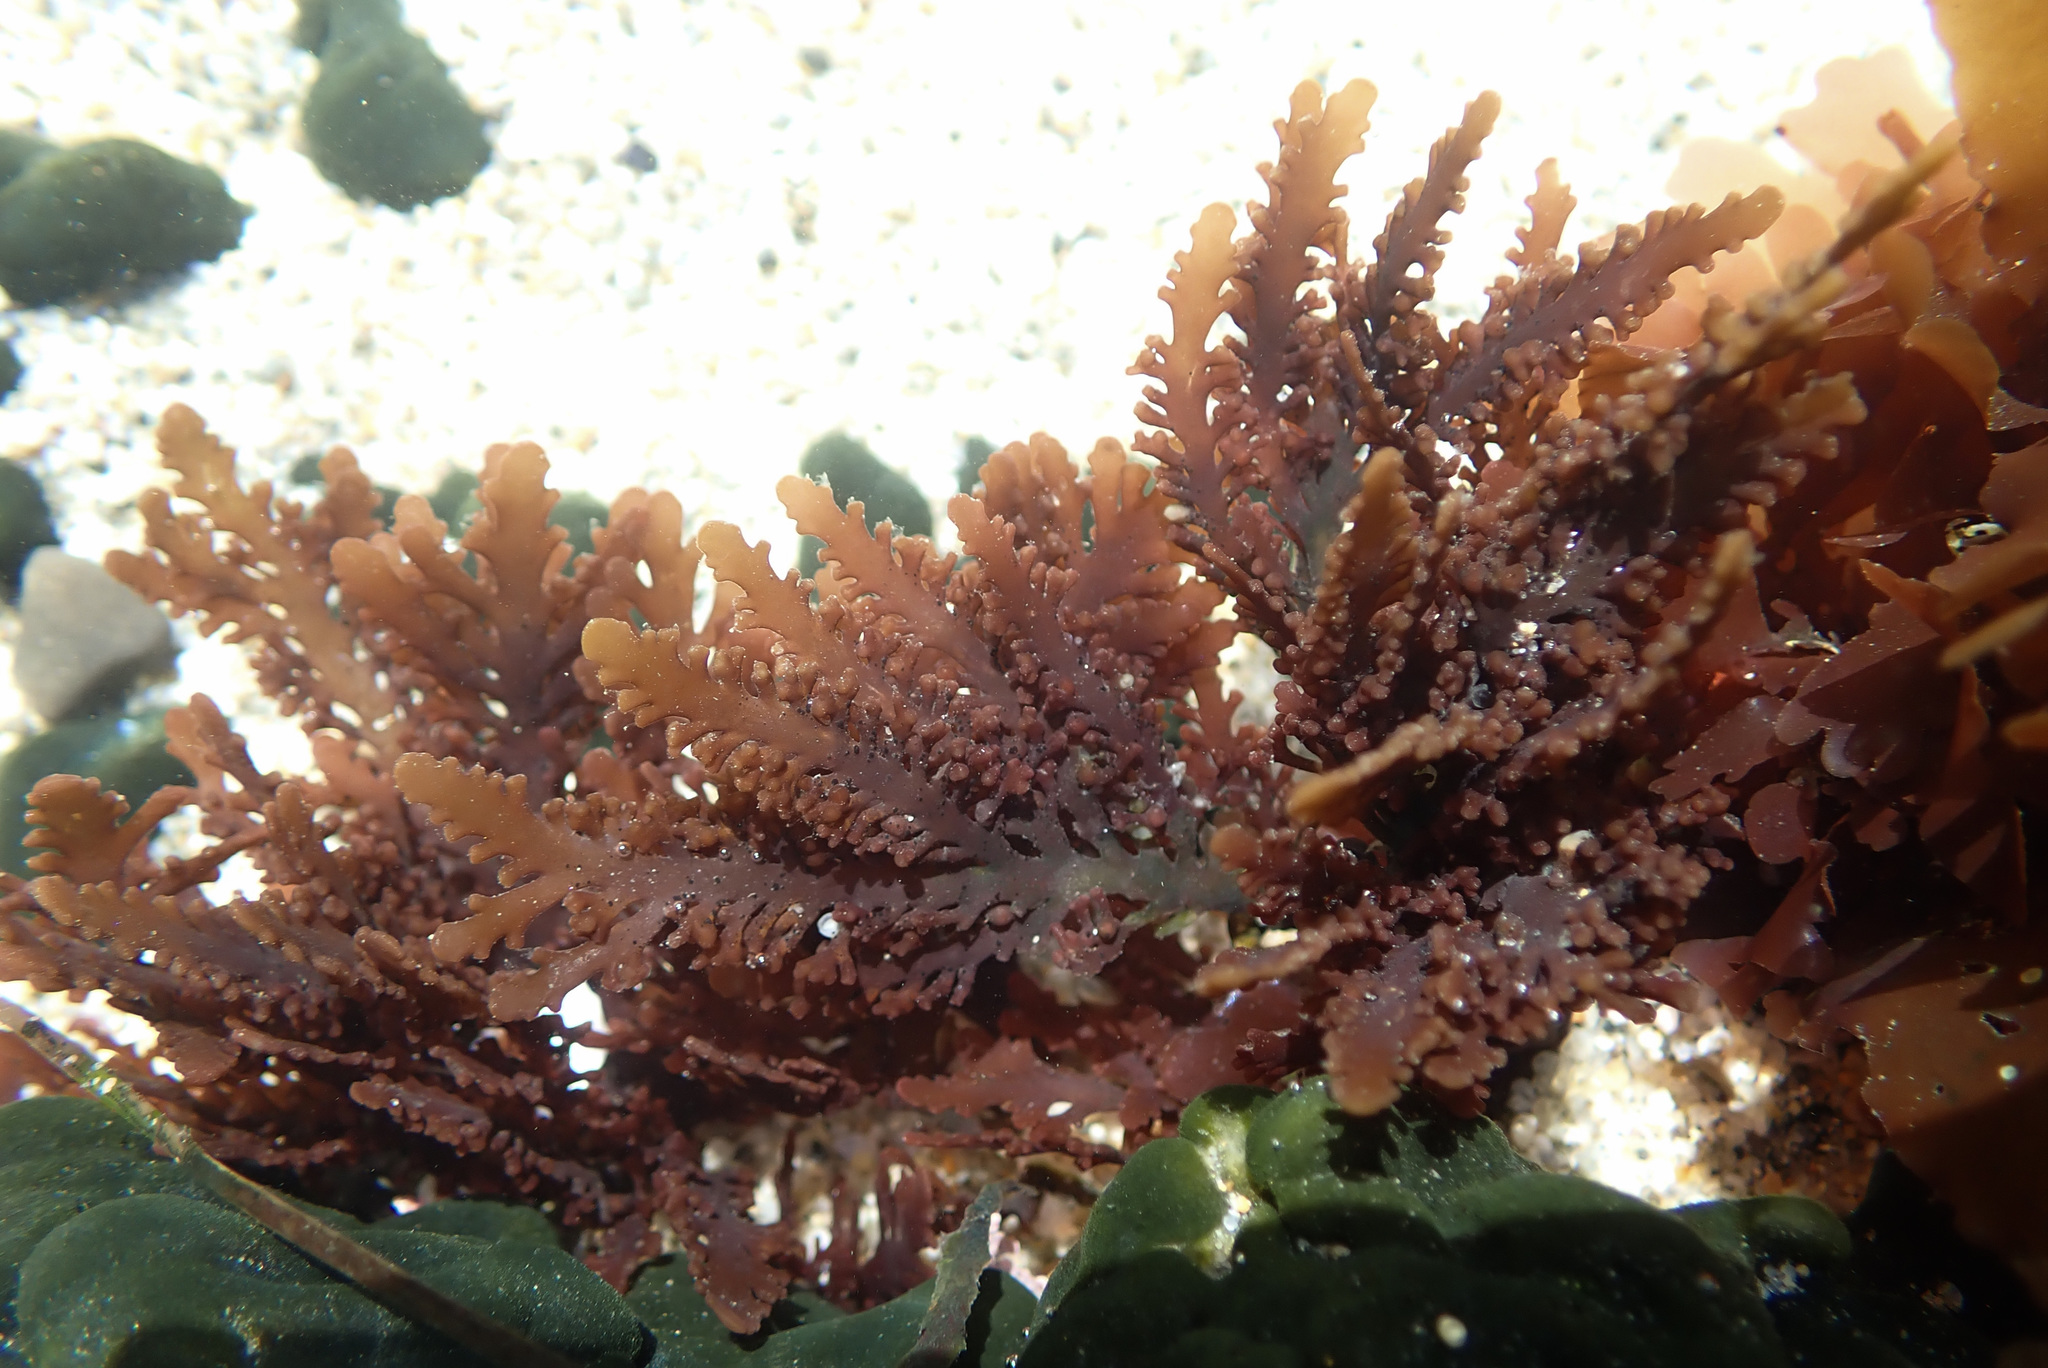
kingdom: Plantae
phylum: Rhodophyta
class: Florideophyceae
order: Ceramiales
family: Rhodomelaceae
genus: Osmundea
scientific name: Osmundea spectabilis
